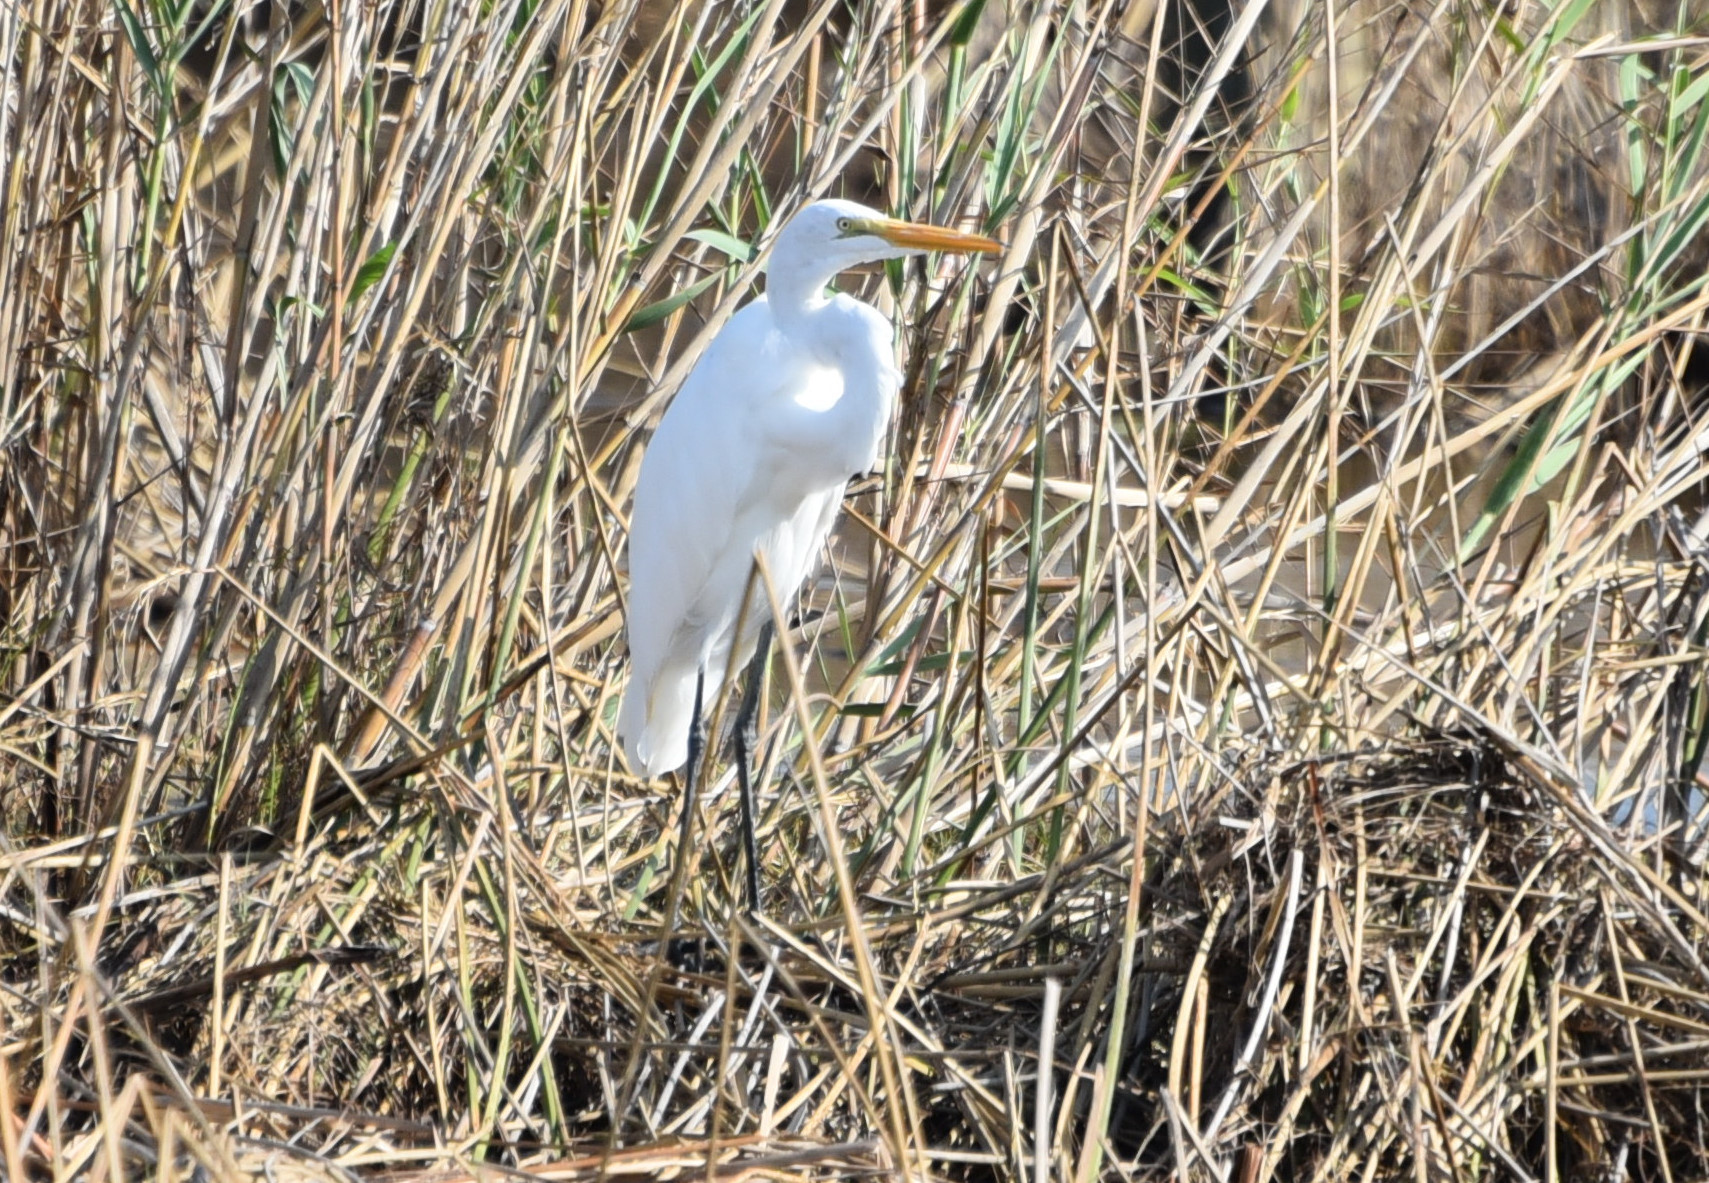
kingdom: Animalia
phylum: Chordata
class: Aves
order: Pelecaniformes
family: Ardeidae
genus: Ardea
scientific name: Ardea alba
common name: Great egret
